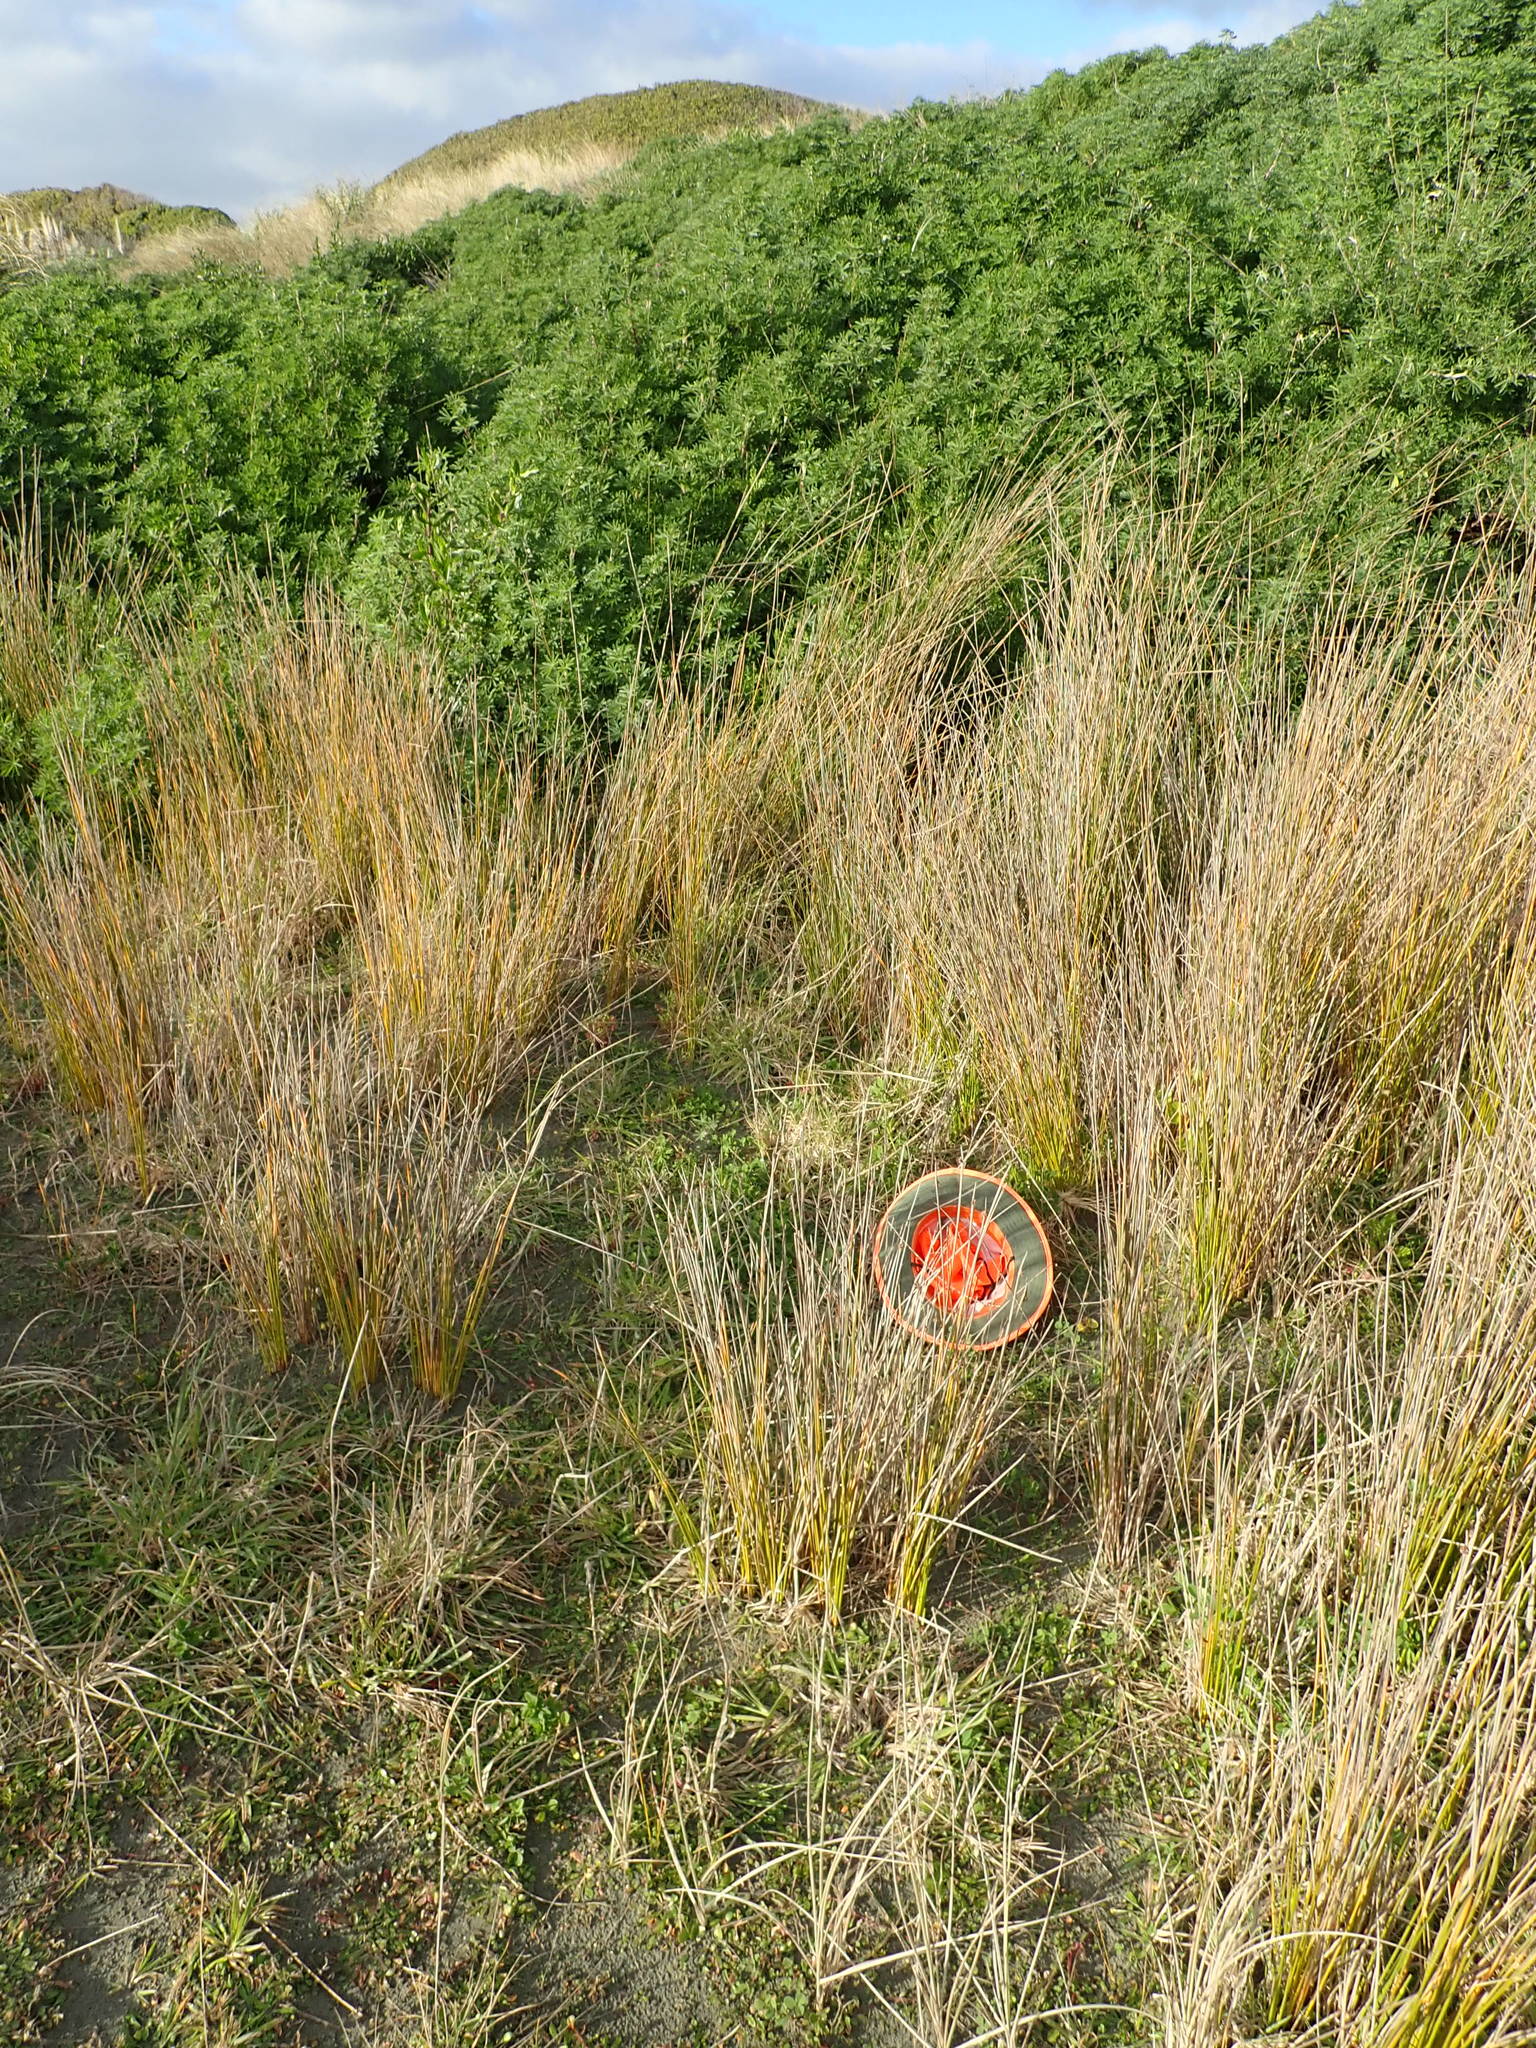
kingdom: Plantae
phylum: Tracheophyta
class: Magnoliopsida
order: Solanales
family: Convolvulaceae
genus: Calystegia
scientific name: Calystegia soldanella
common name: Sea bindweed
